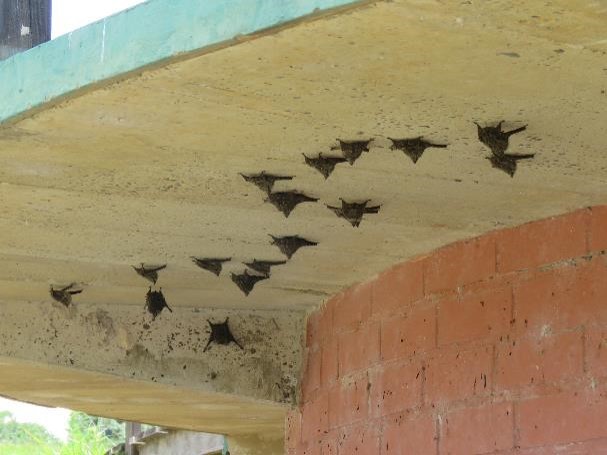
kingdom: Animalia
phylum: Chordata
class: Mammalia
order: Chiroptera
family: Emballonuridae
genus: Rhynchonycteris
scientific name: Rhynchonycteris naso
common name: Proboscis bat
